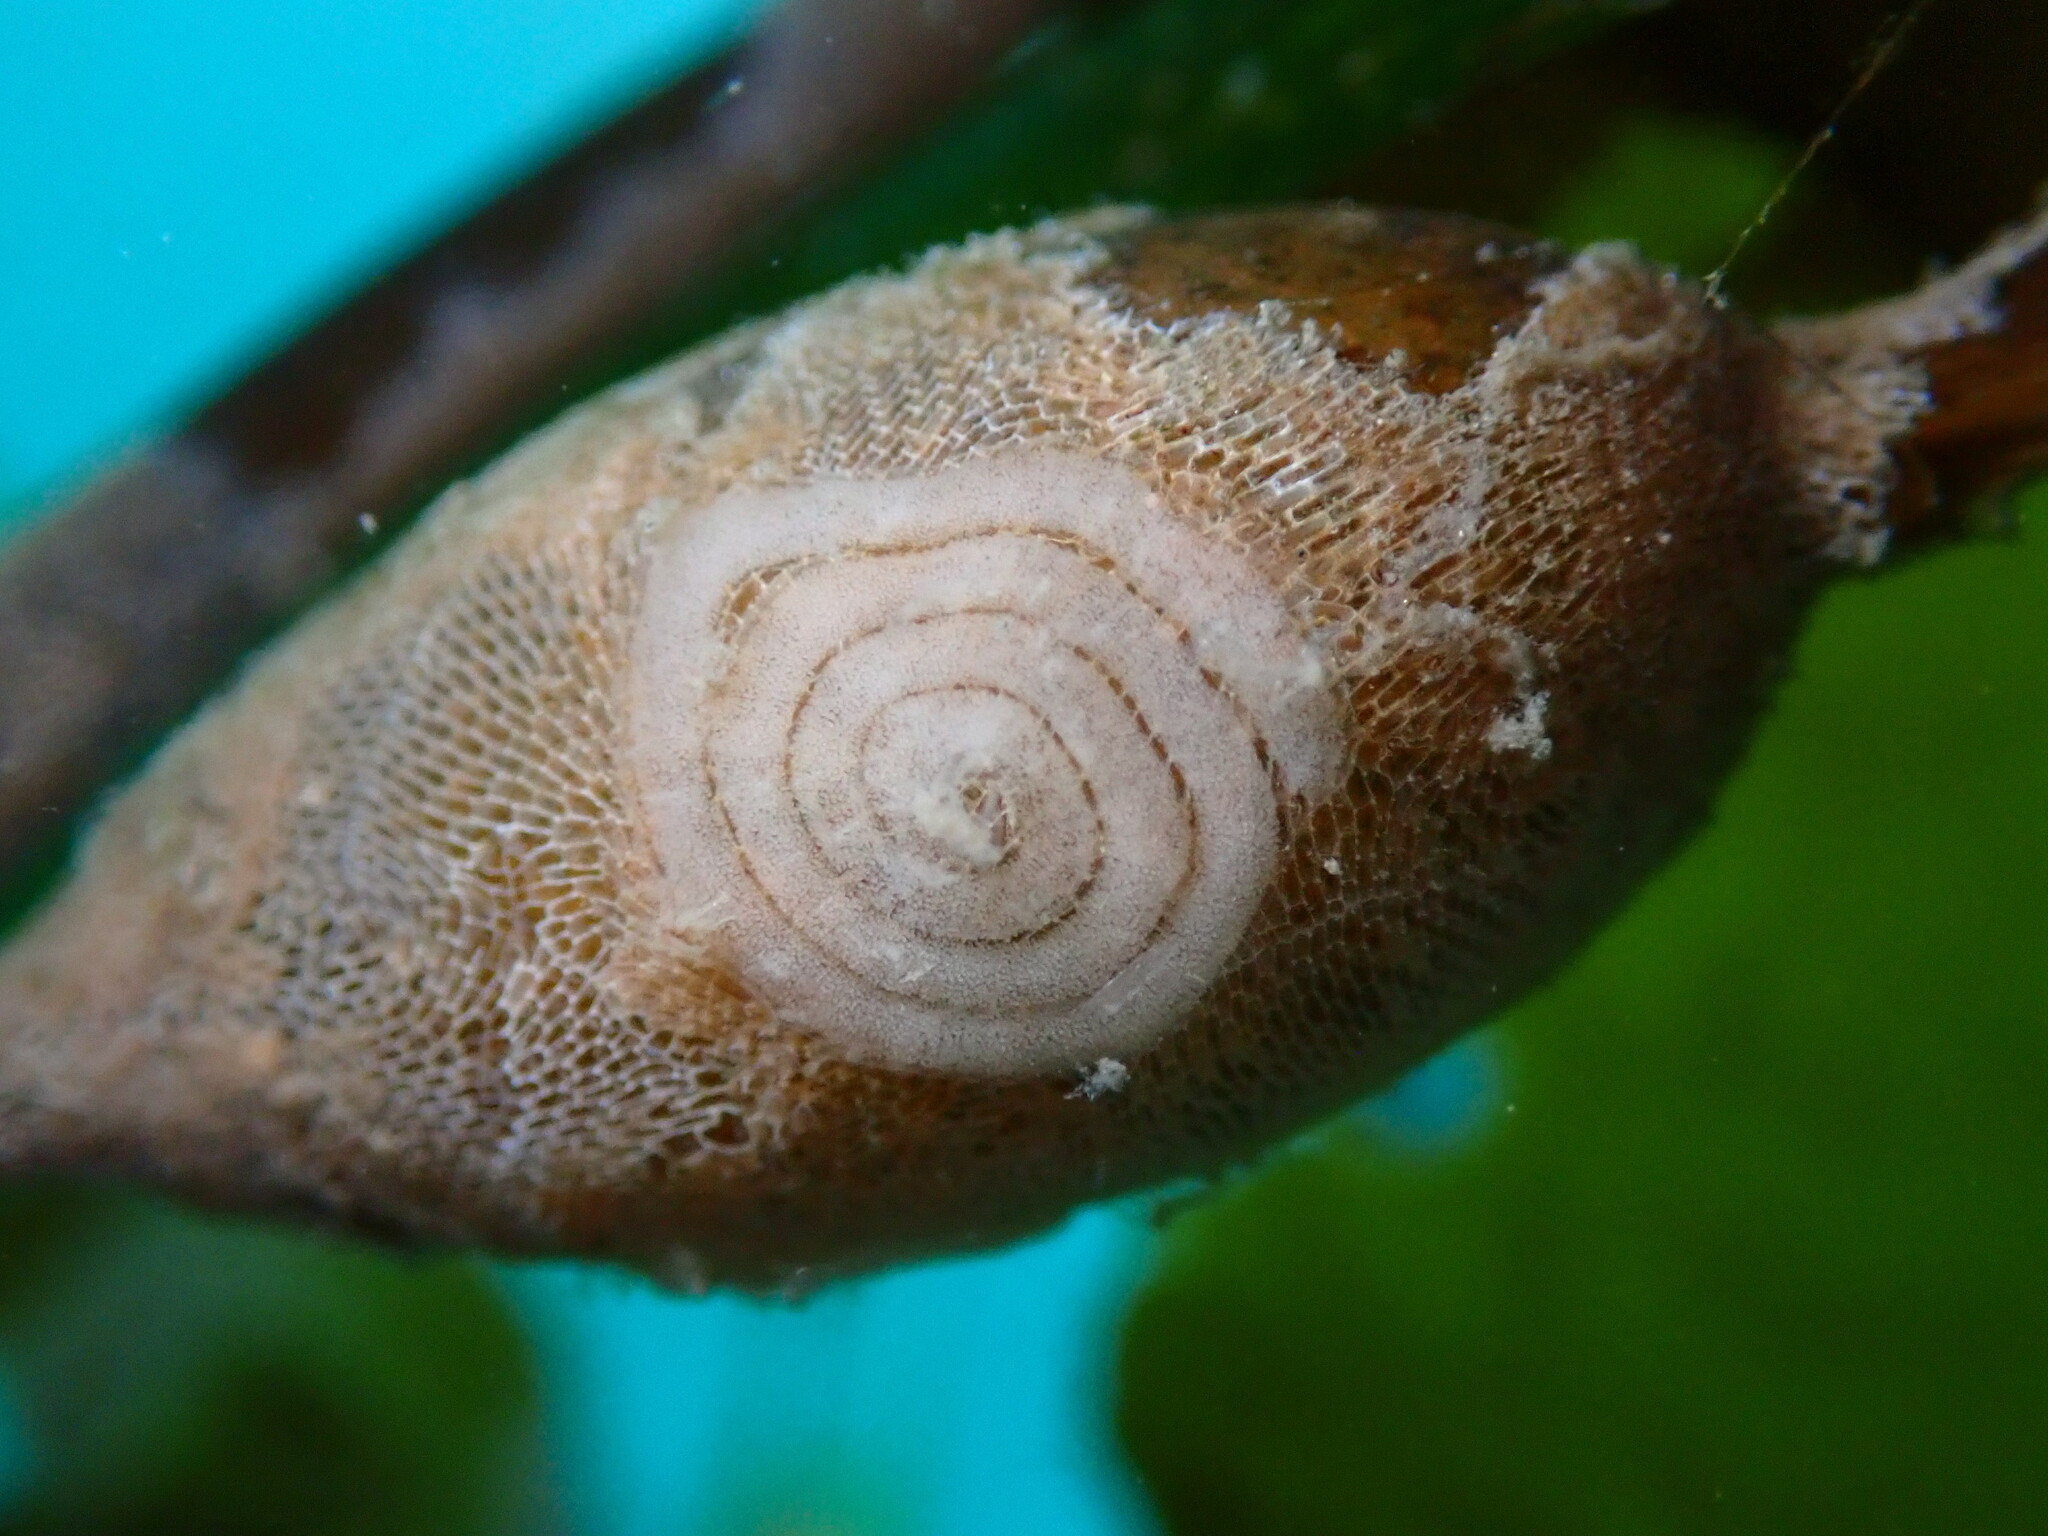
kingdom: Animalia
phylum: Mollusca
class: Gastropoda
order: Nudibranchia
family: Corambidae
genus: Corambe
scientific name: Corambe pacifica
